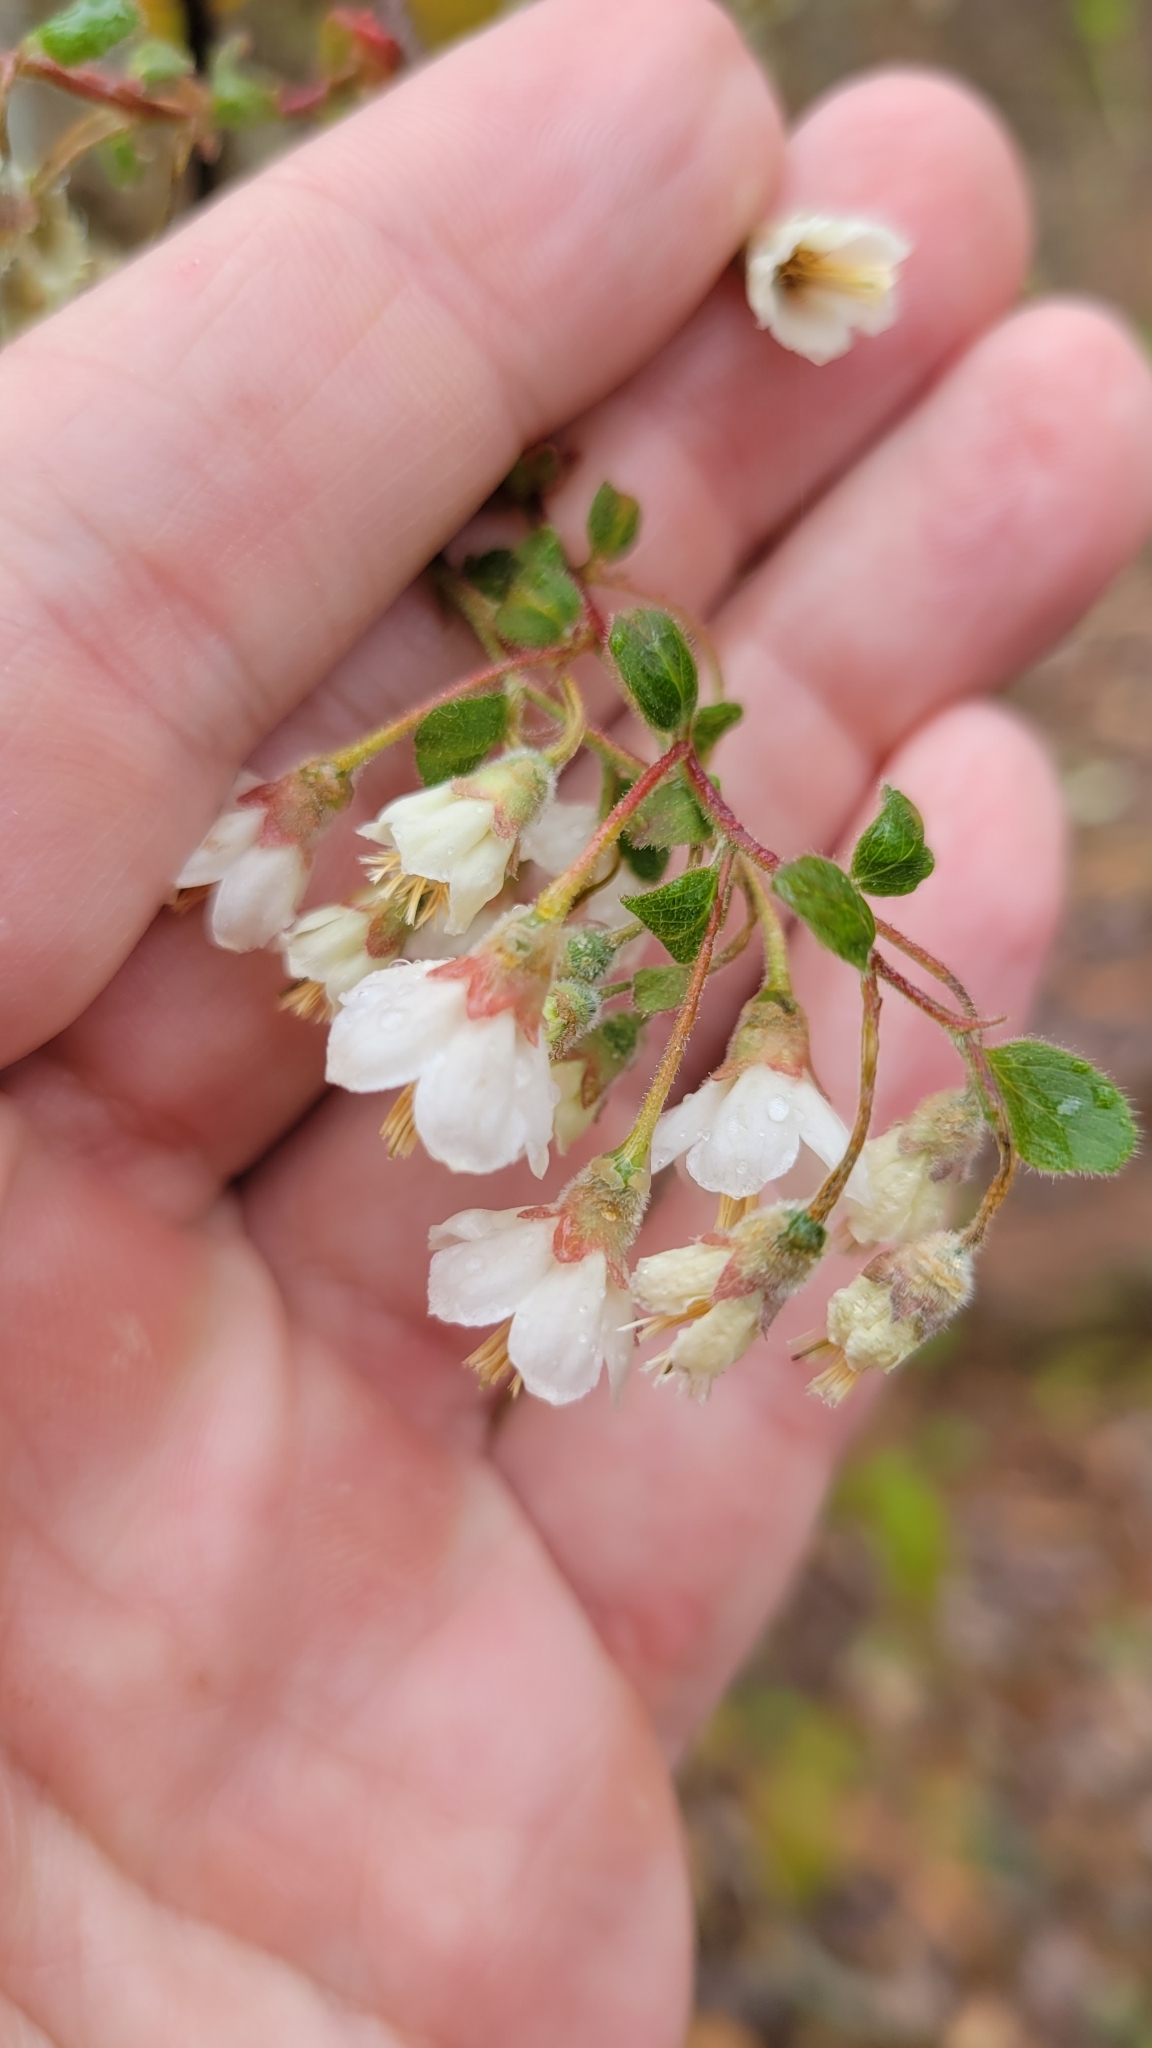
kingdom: Plantae
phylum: Tracheophyta
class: Magnoliopsida
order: Ericales
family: Ericaceae
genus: Vaccinium
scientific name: Vaccinium stamineum
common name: Deerberry
